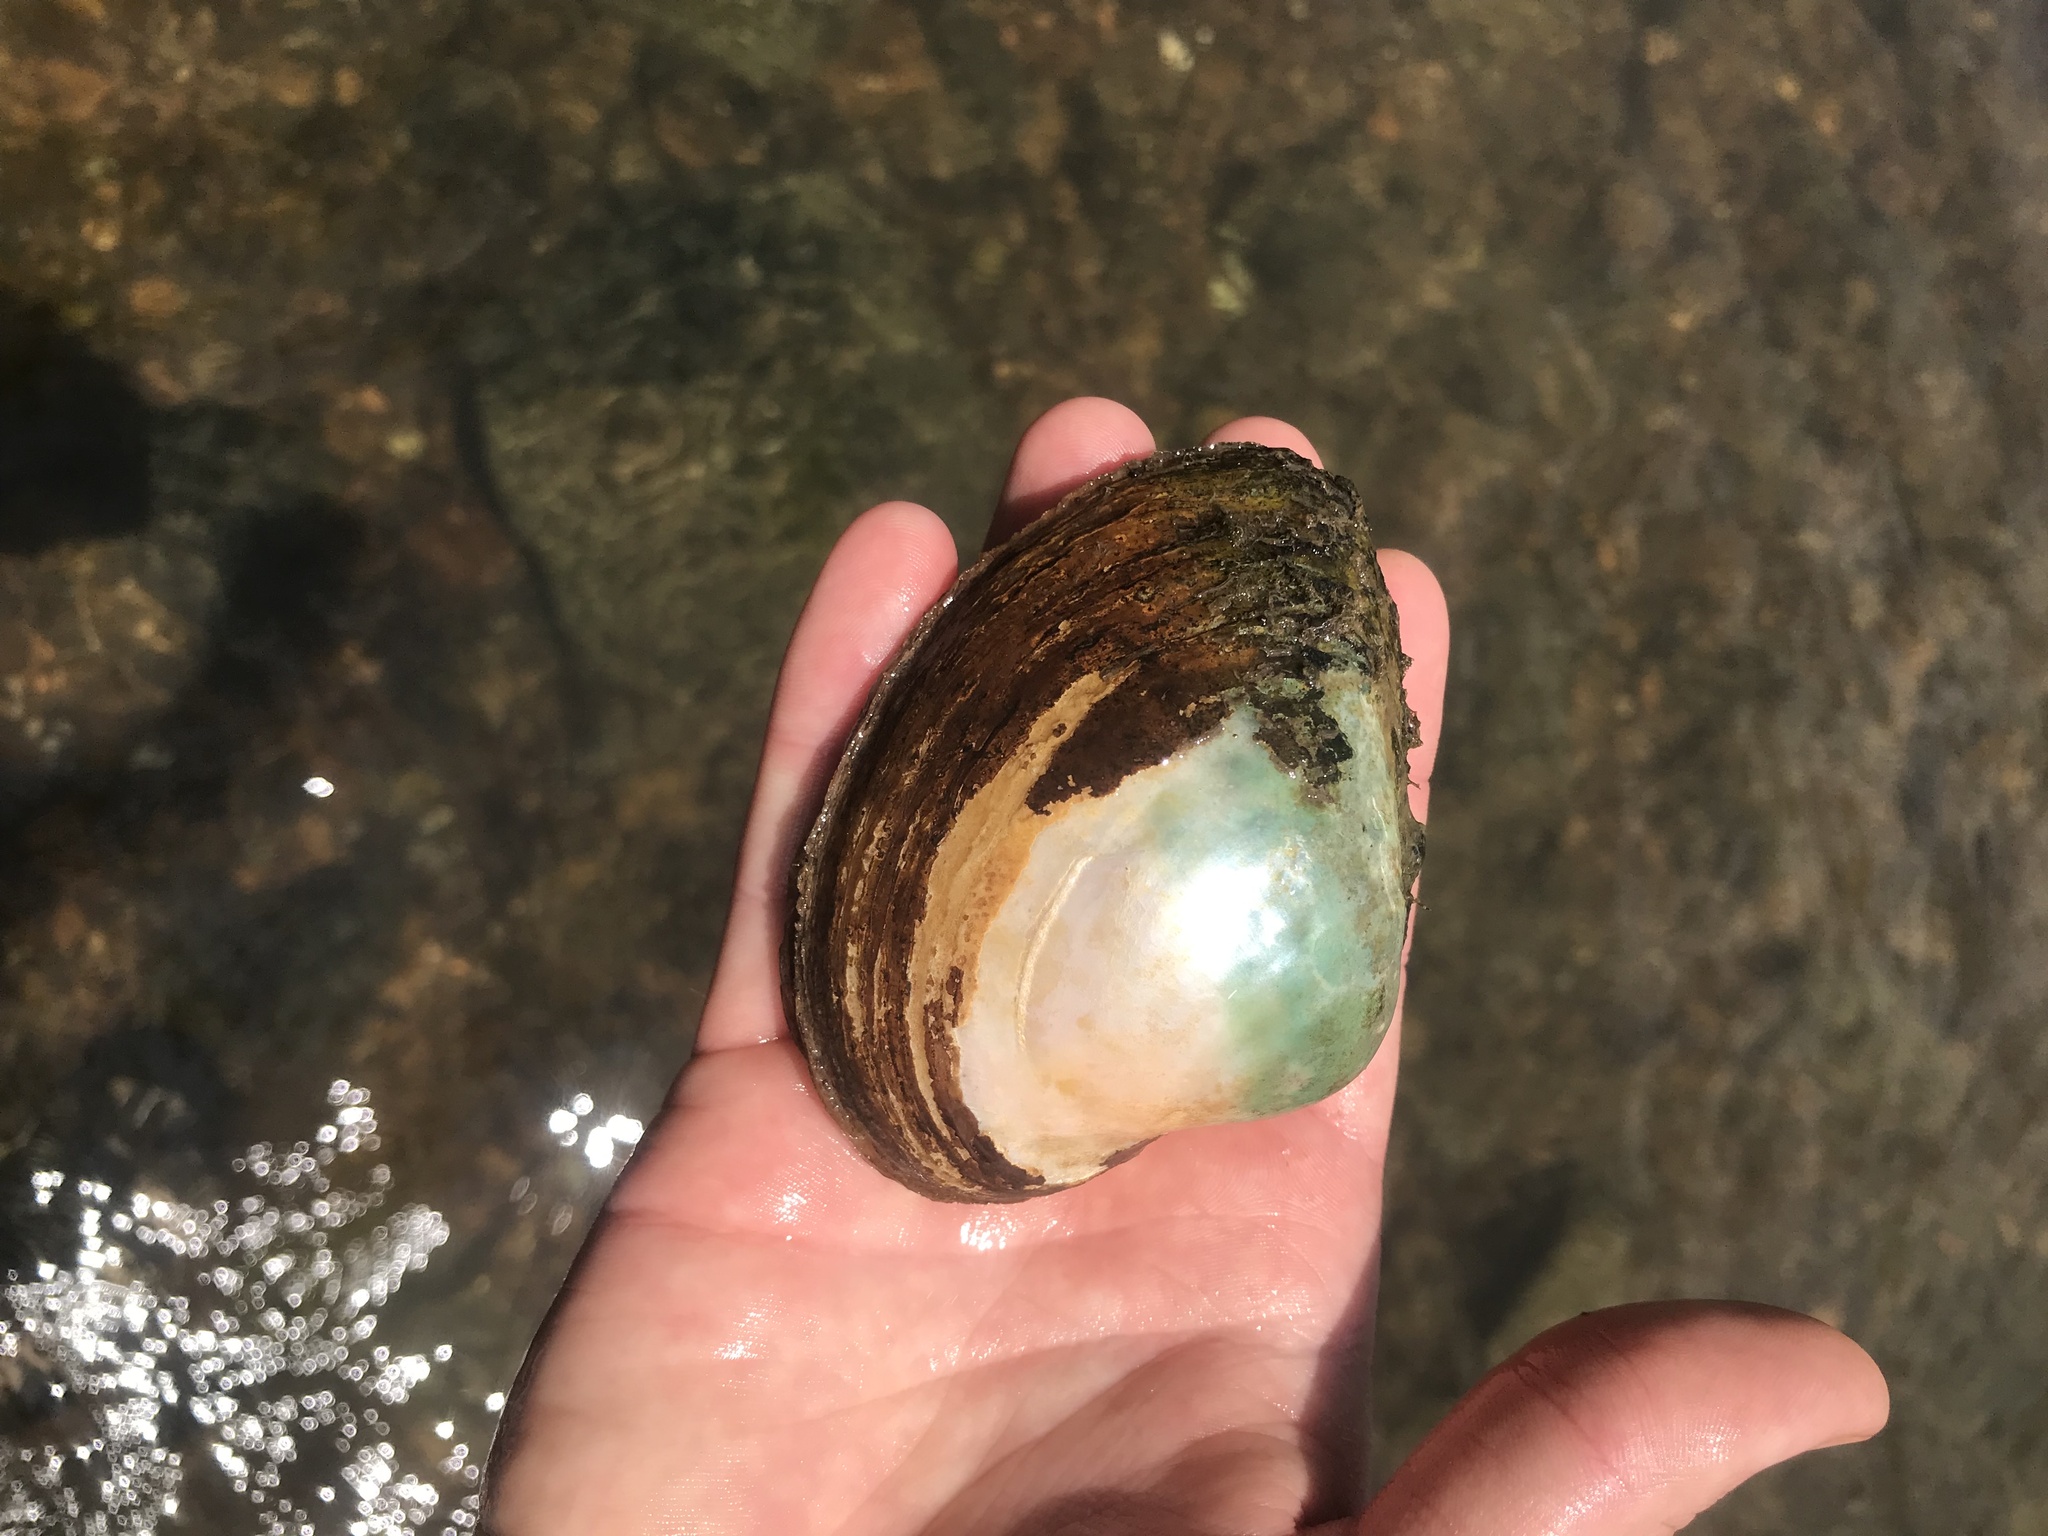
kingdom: Animalia
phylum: Mollusca
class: Bivalvia
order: Unionida
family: Unionidae
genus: Lampsilis
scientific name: Lampsilis ornata
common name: Southern pocketbook
